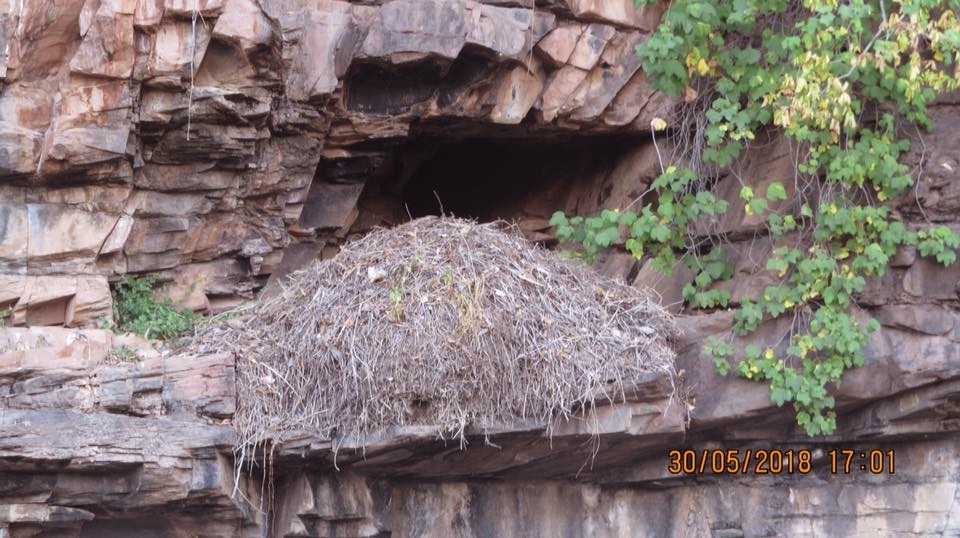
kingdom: Animalia
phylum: Chordata
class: Aves
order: Pelecaniformes
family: Scopidae
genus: Scopus
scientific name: Scopus umbretta
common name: Hamerkop
